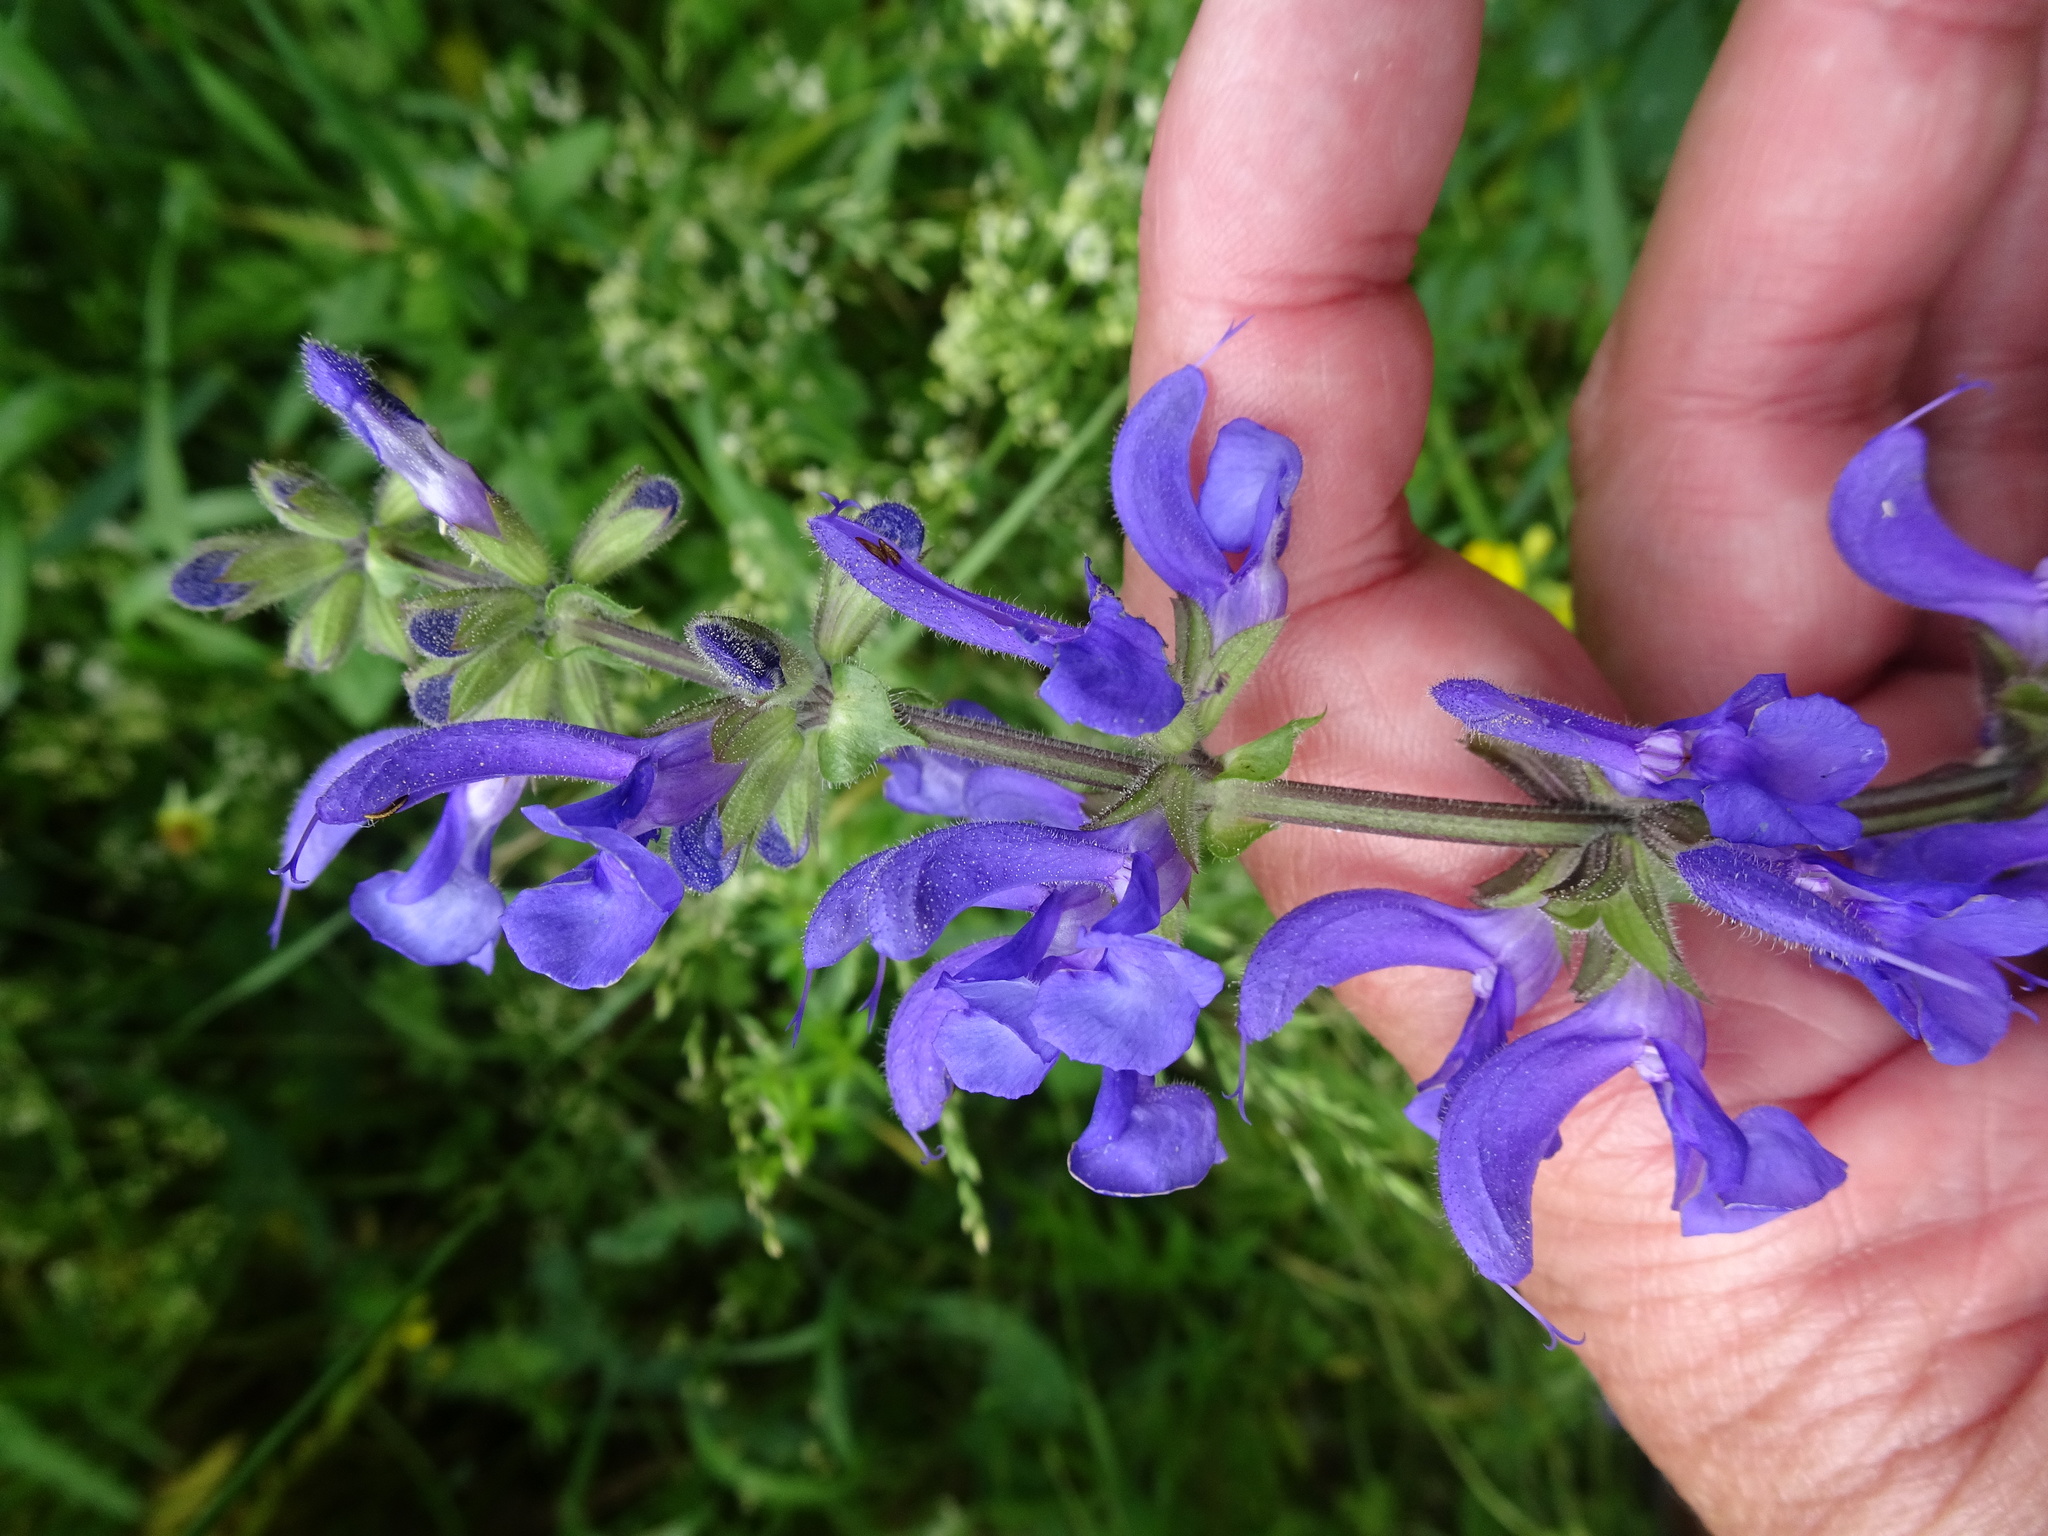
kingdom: Plantae
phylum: Tracheophyta
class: Magnoliopsida
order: Lamiales
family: Lamiaceae
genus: Salvia
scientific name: Salvia pratensis
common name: Meadow sage
